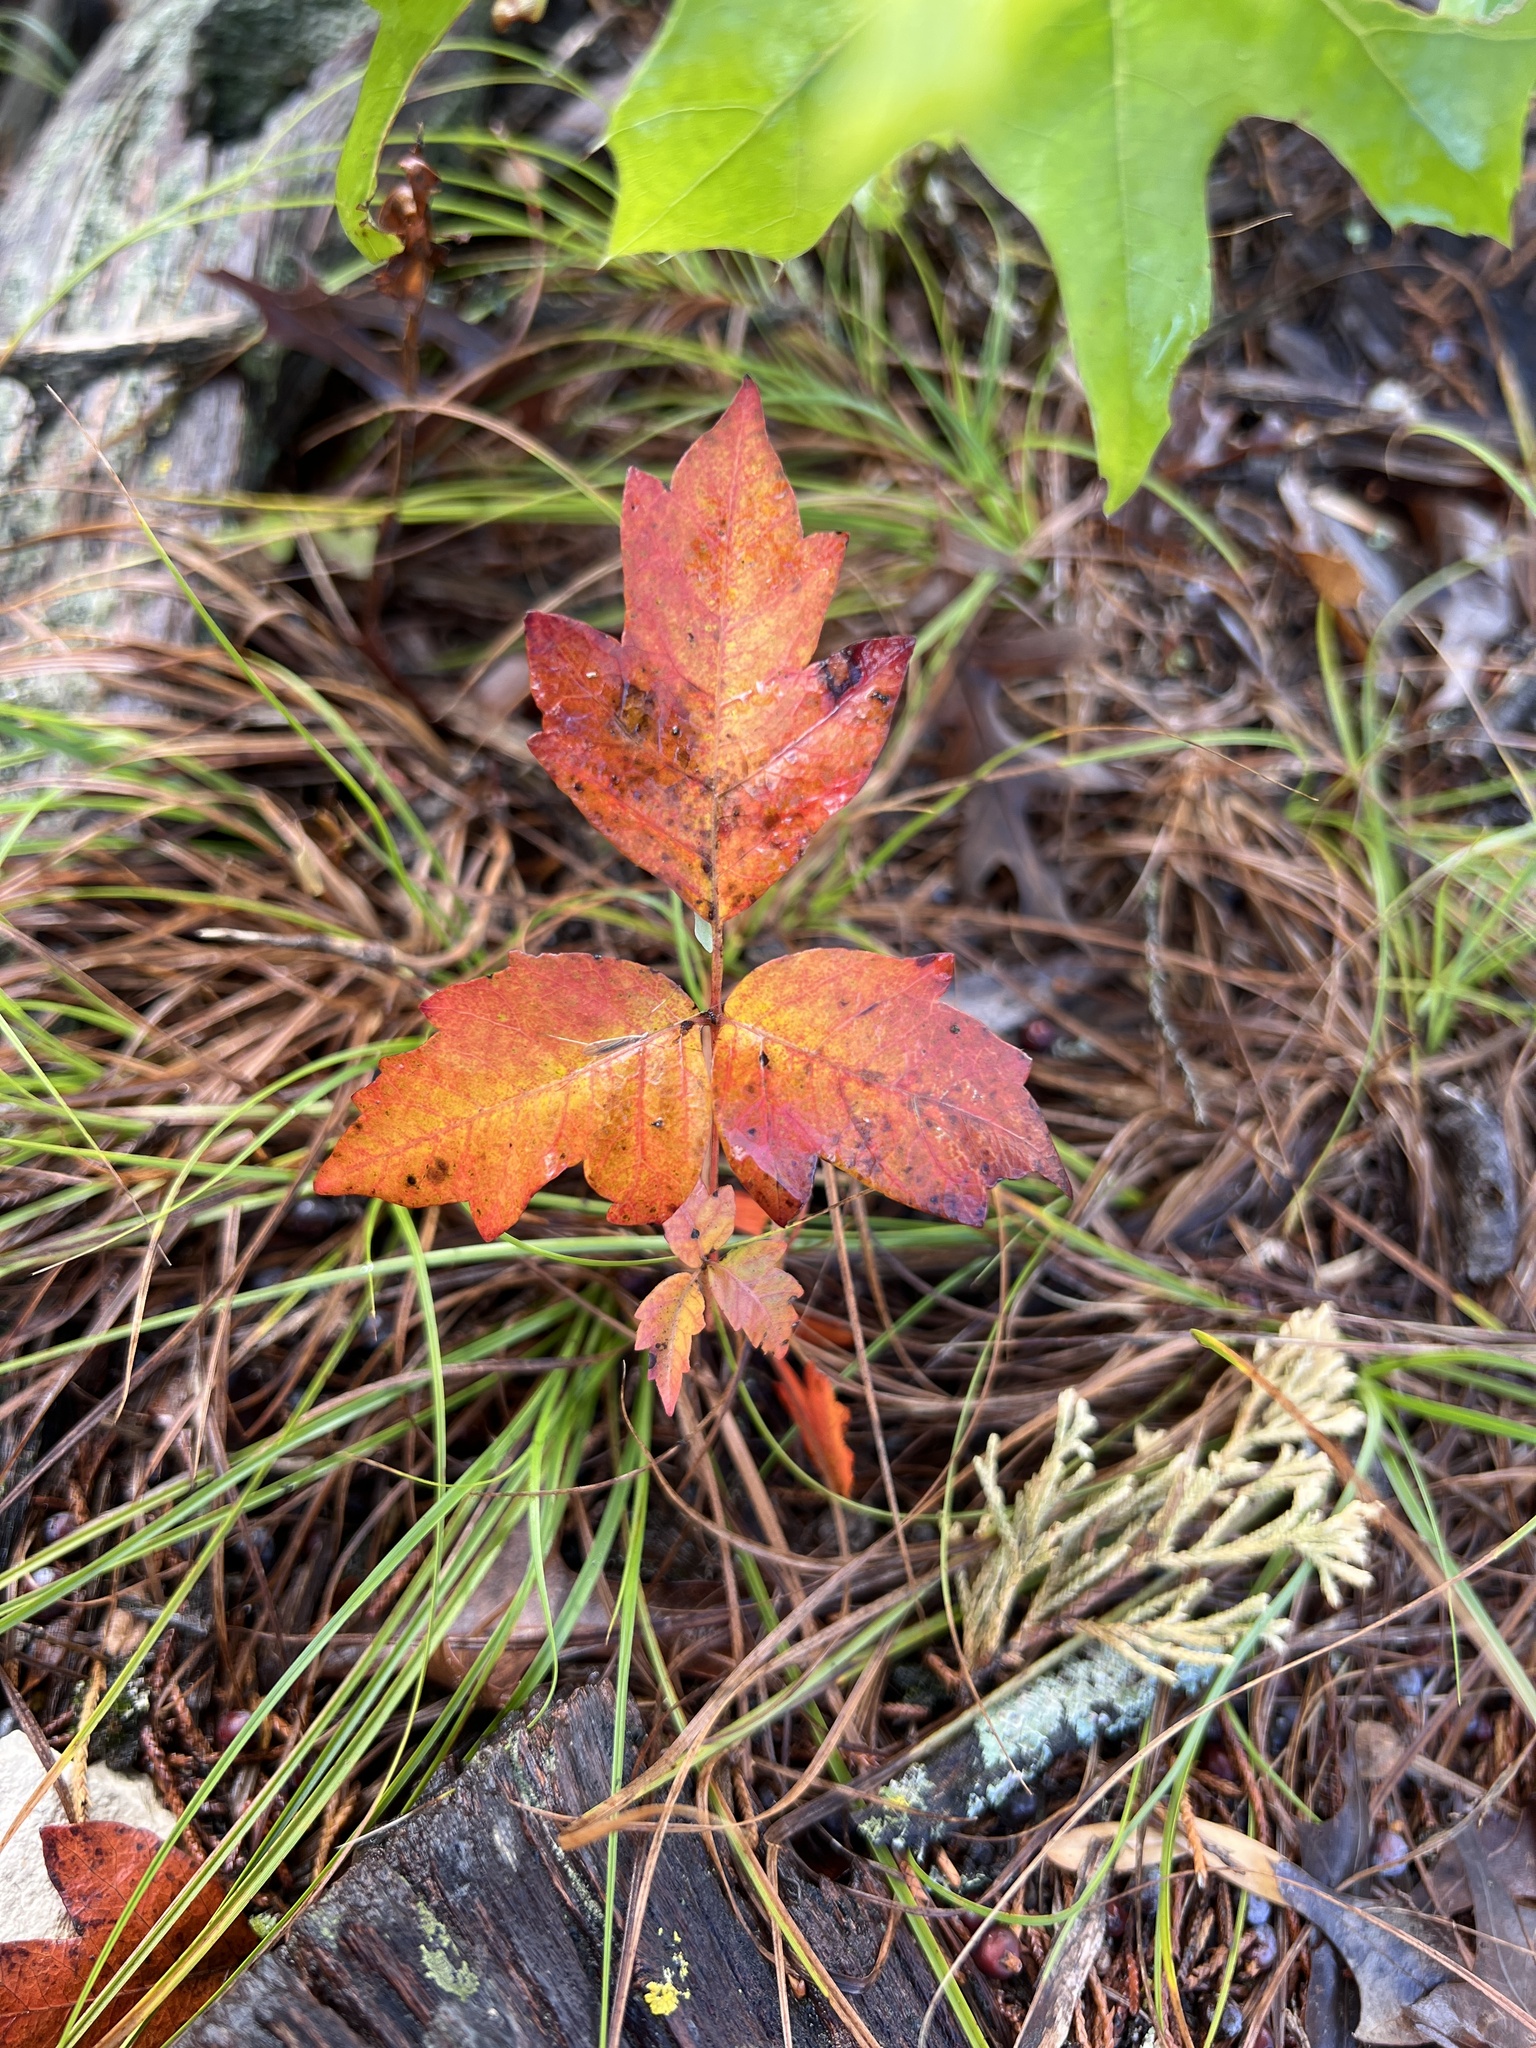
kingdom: Plantae
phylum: Tracheophyta
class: Magnoliopsida
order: Sapindales
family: Anacardiaceae
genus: Toxicodendron
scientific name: Toxicodendron radicans
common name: Poison ivy
